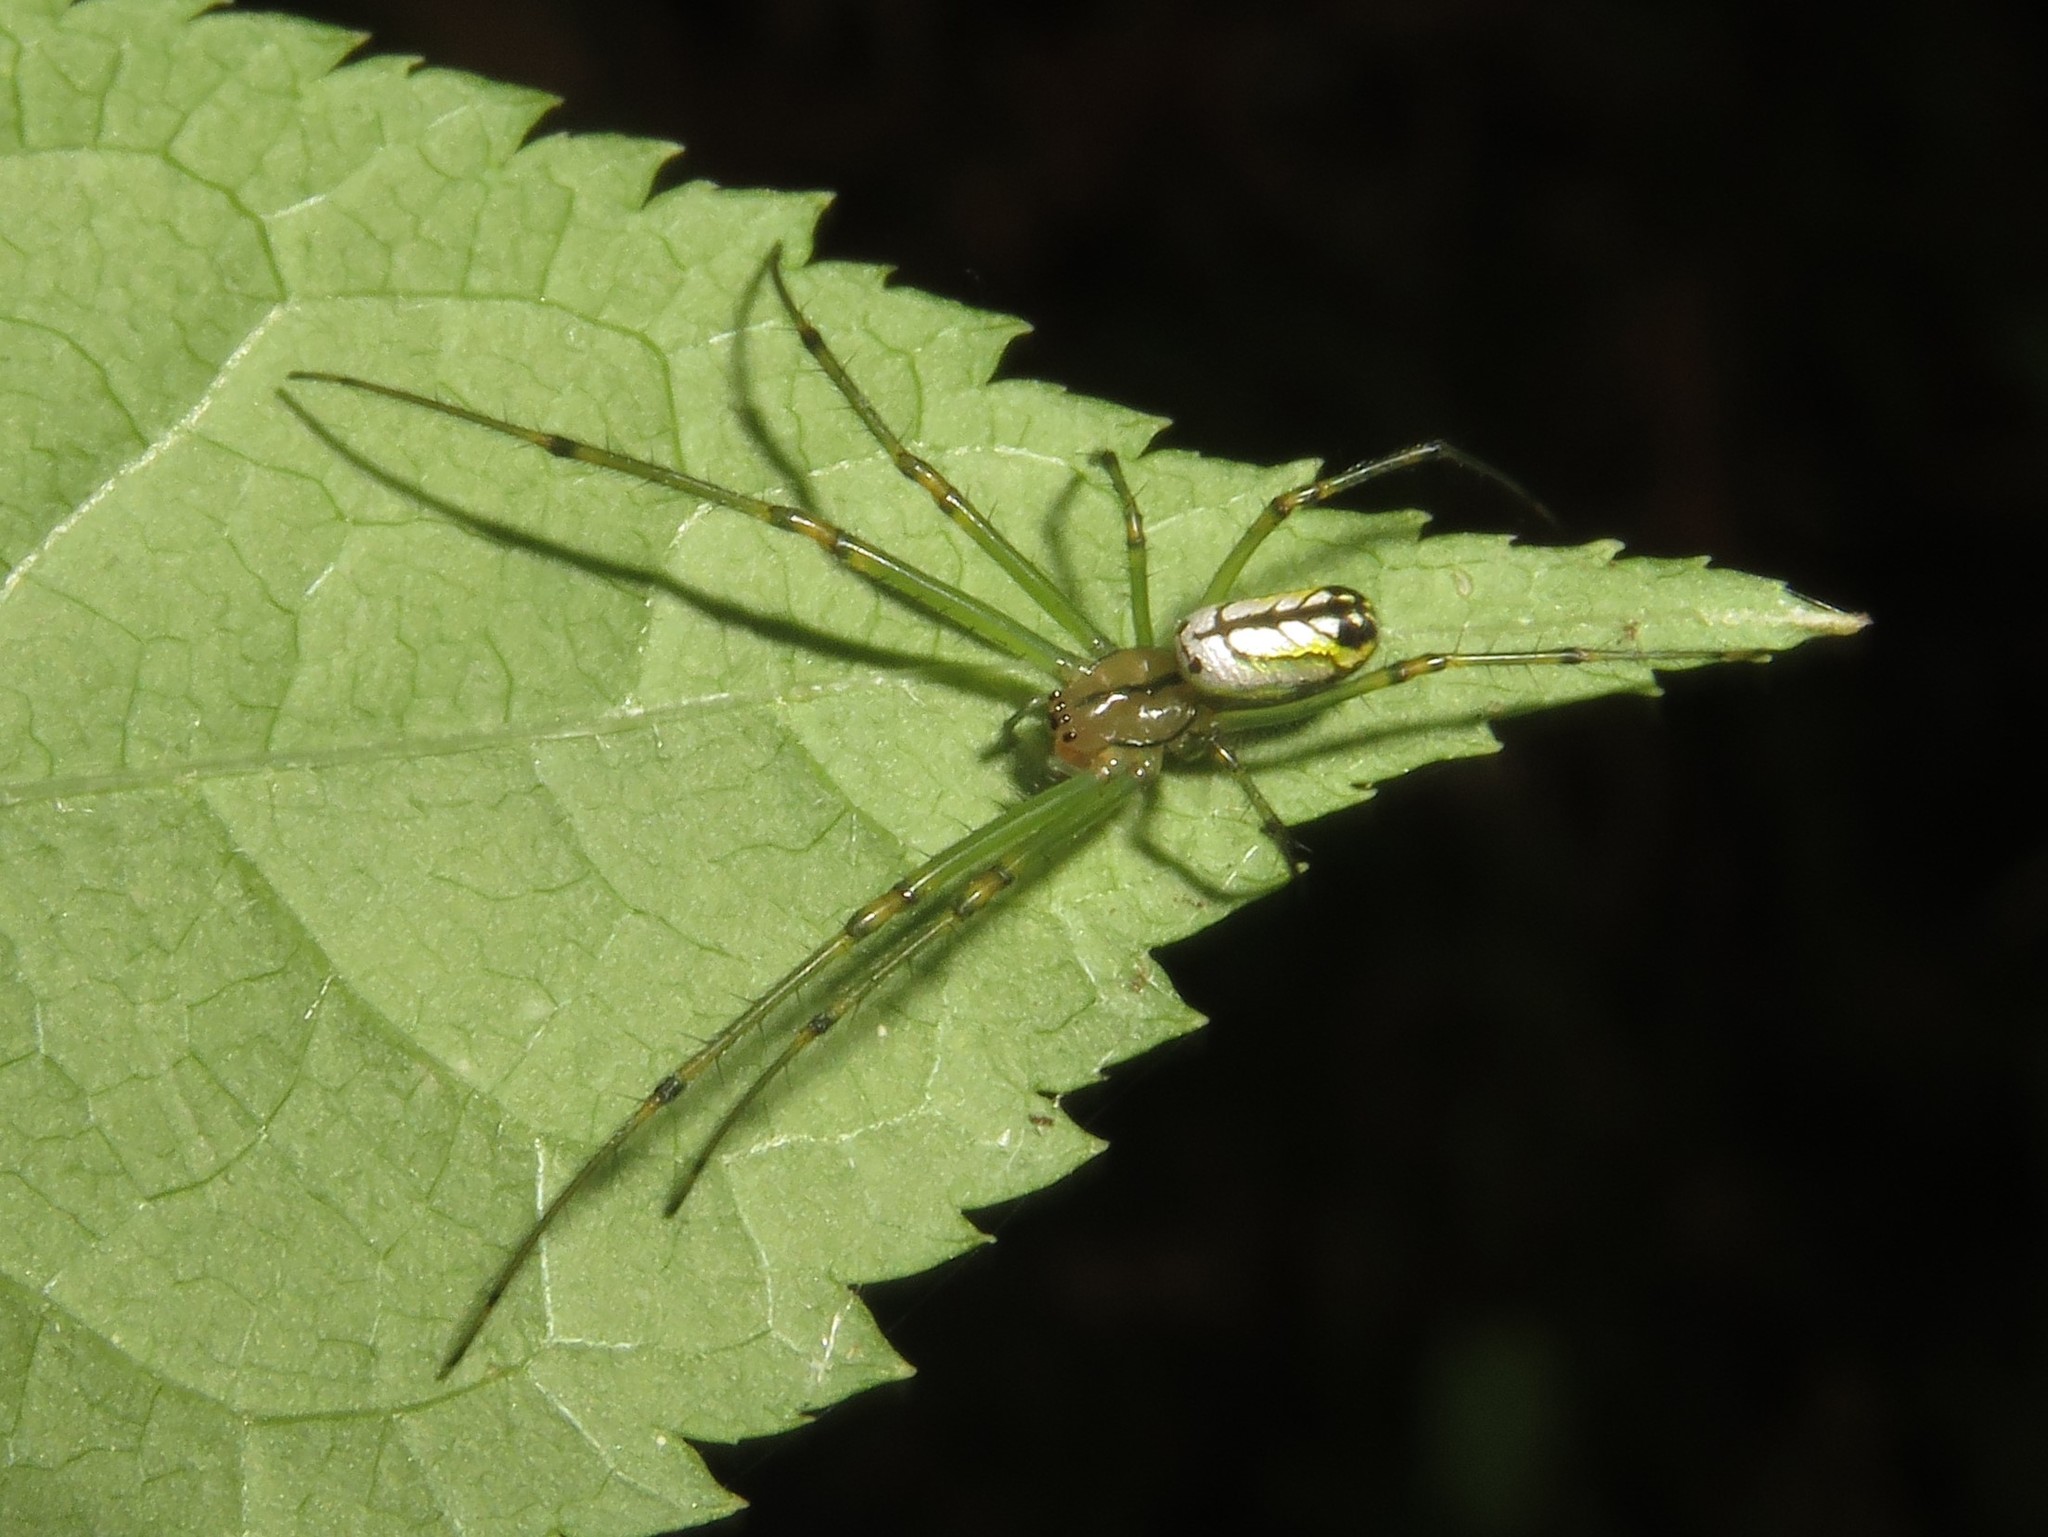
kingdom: Animalia
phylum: Arthropoda
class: Arachnida
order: Araneae
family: Tetragnathidae
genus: Leucauge
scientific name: Leucauge venusta
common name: Longjawed orb weavers
